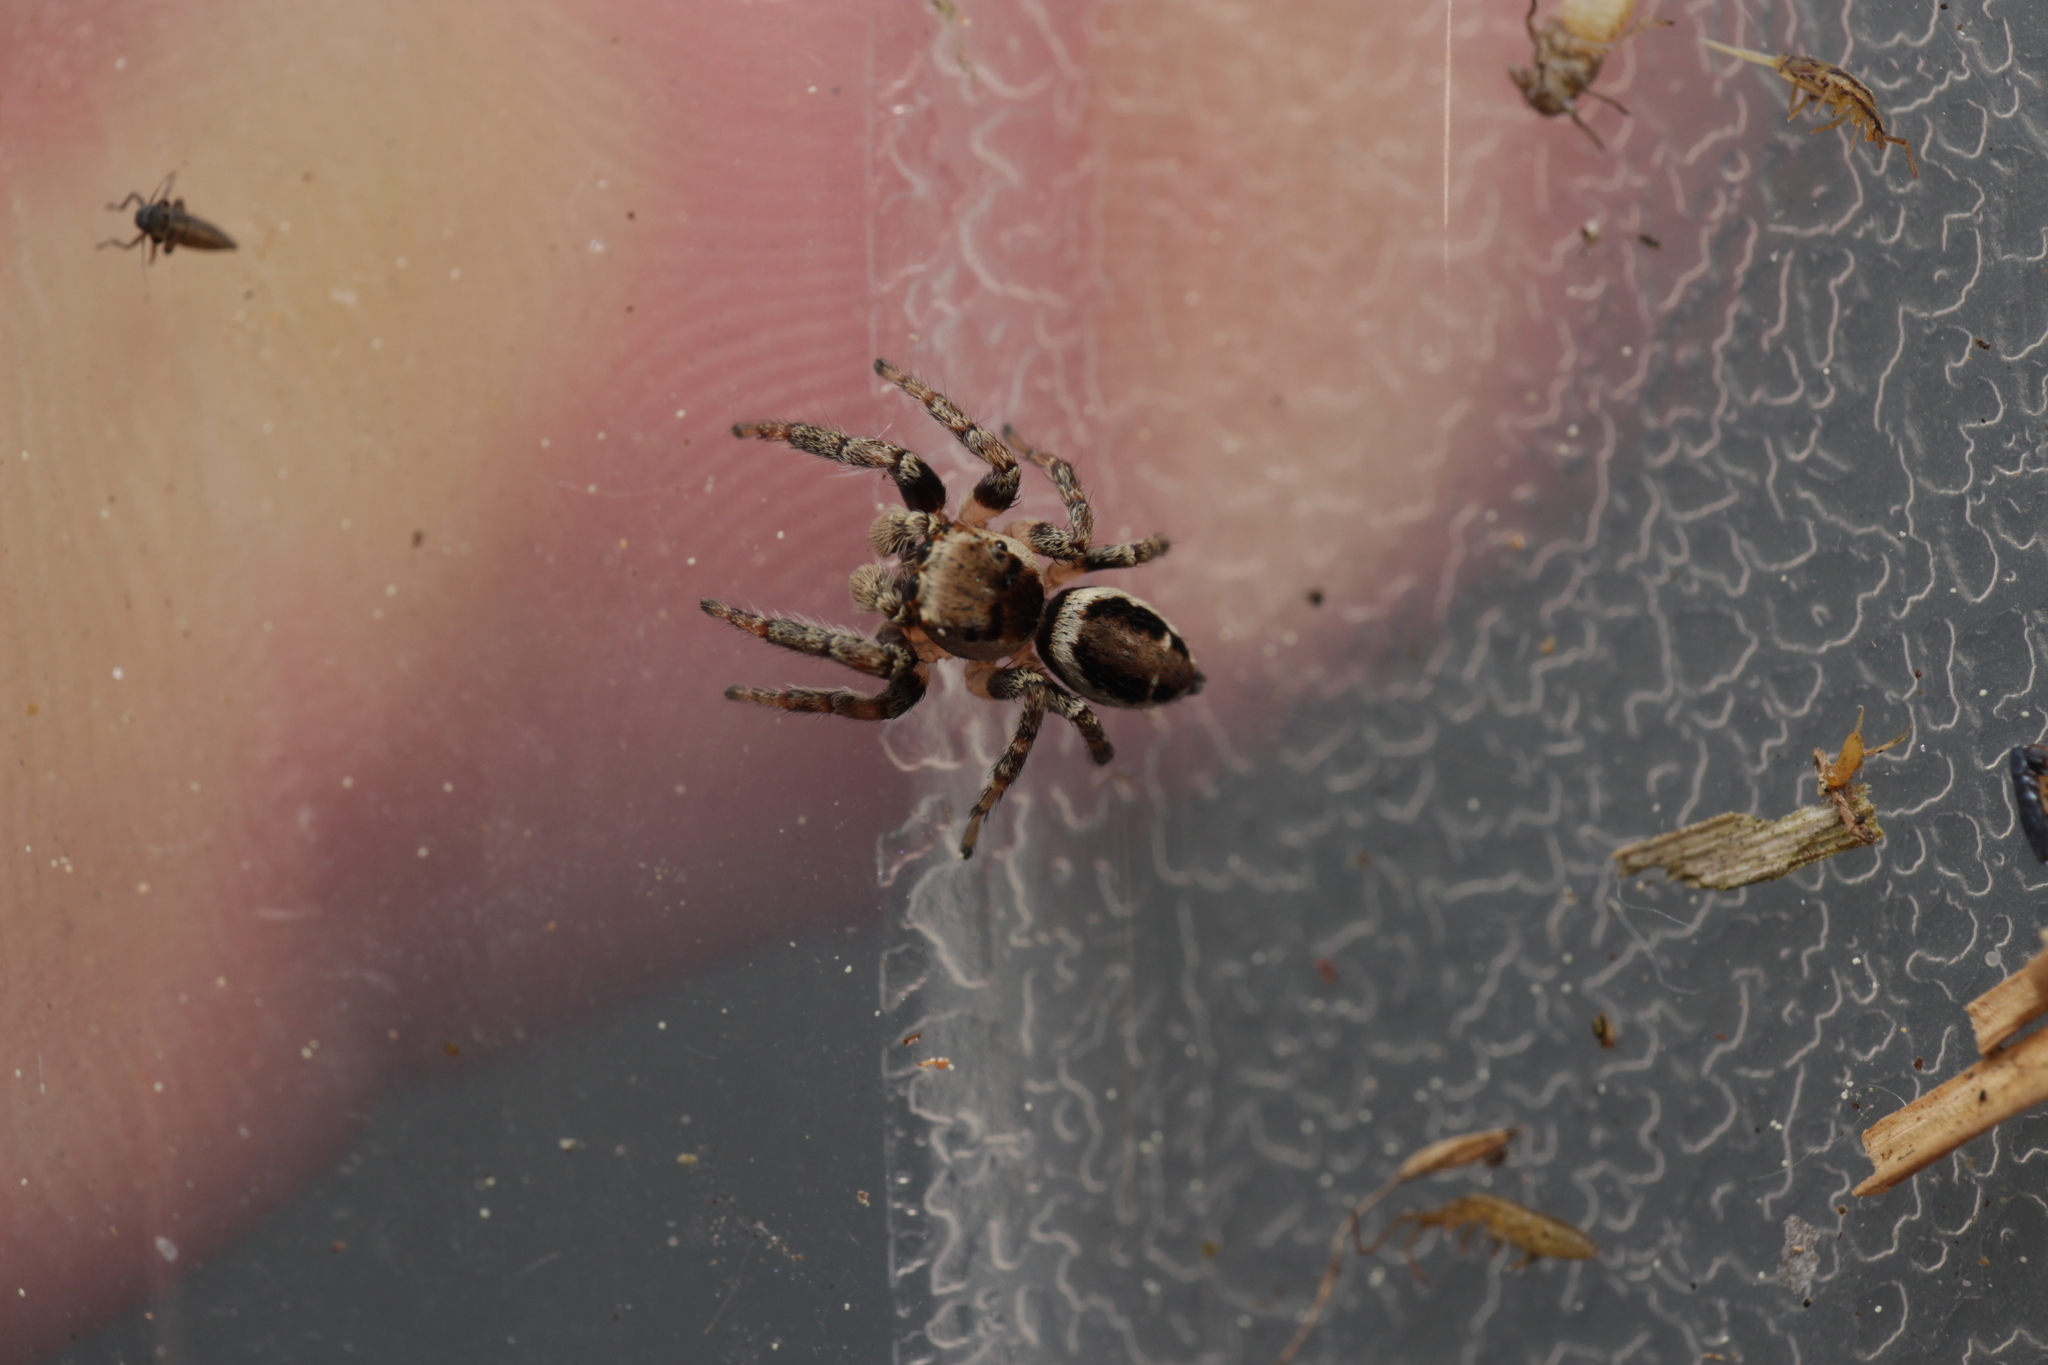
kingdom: Animalia
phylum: Arthropoda
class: Arachnida
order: Araneae
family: Salticidae
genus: Evarcha
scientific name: Evarcha falcata
